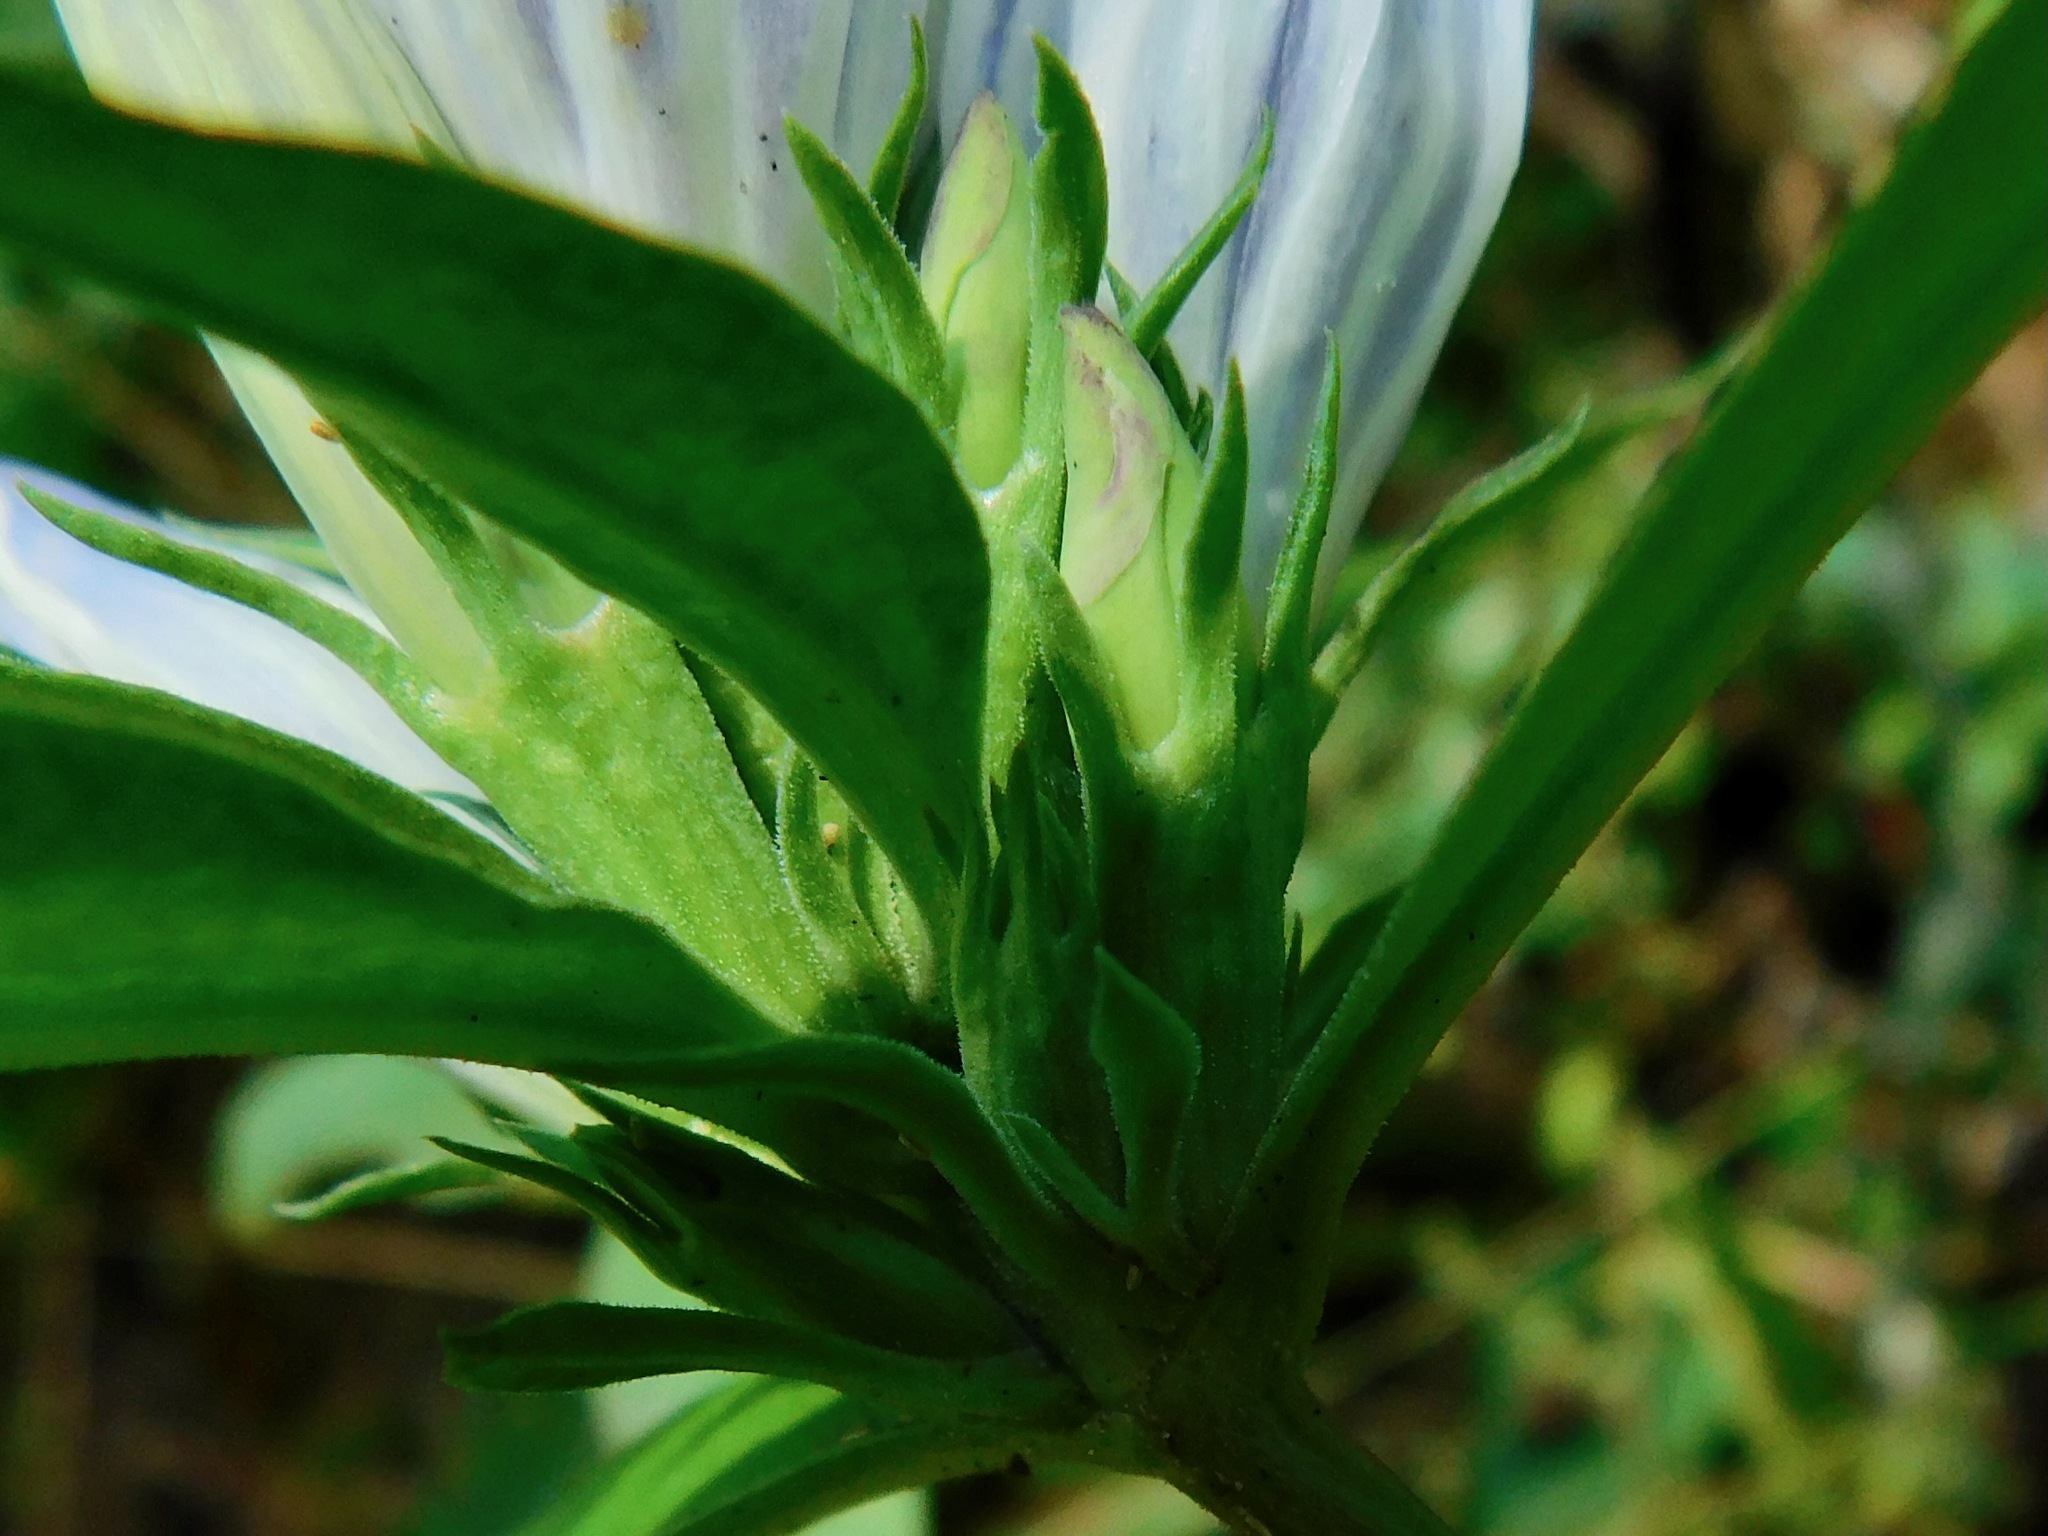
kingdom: Plantae
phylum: Tracheophyta
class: Magnoliopsida
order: Gentianales
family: Gentianaceae
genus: Gentiana
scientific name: Gentiana decora
